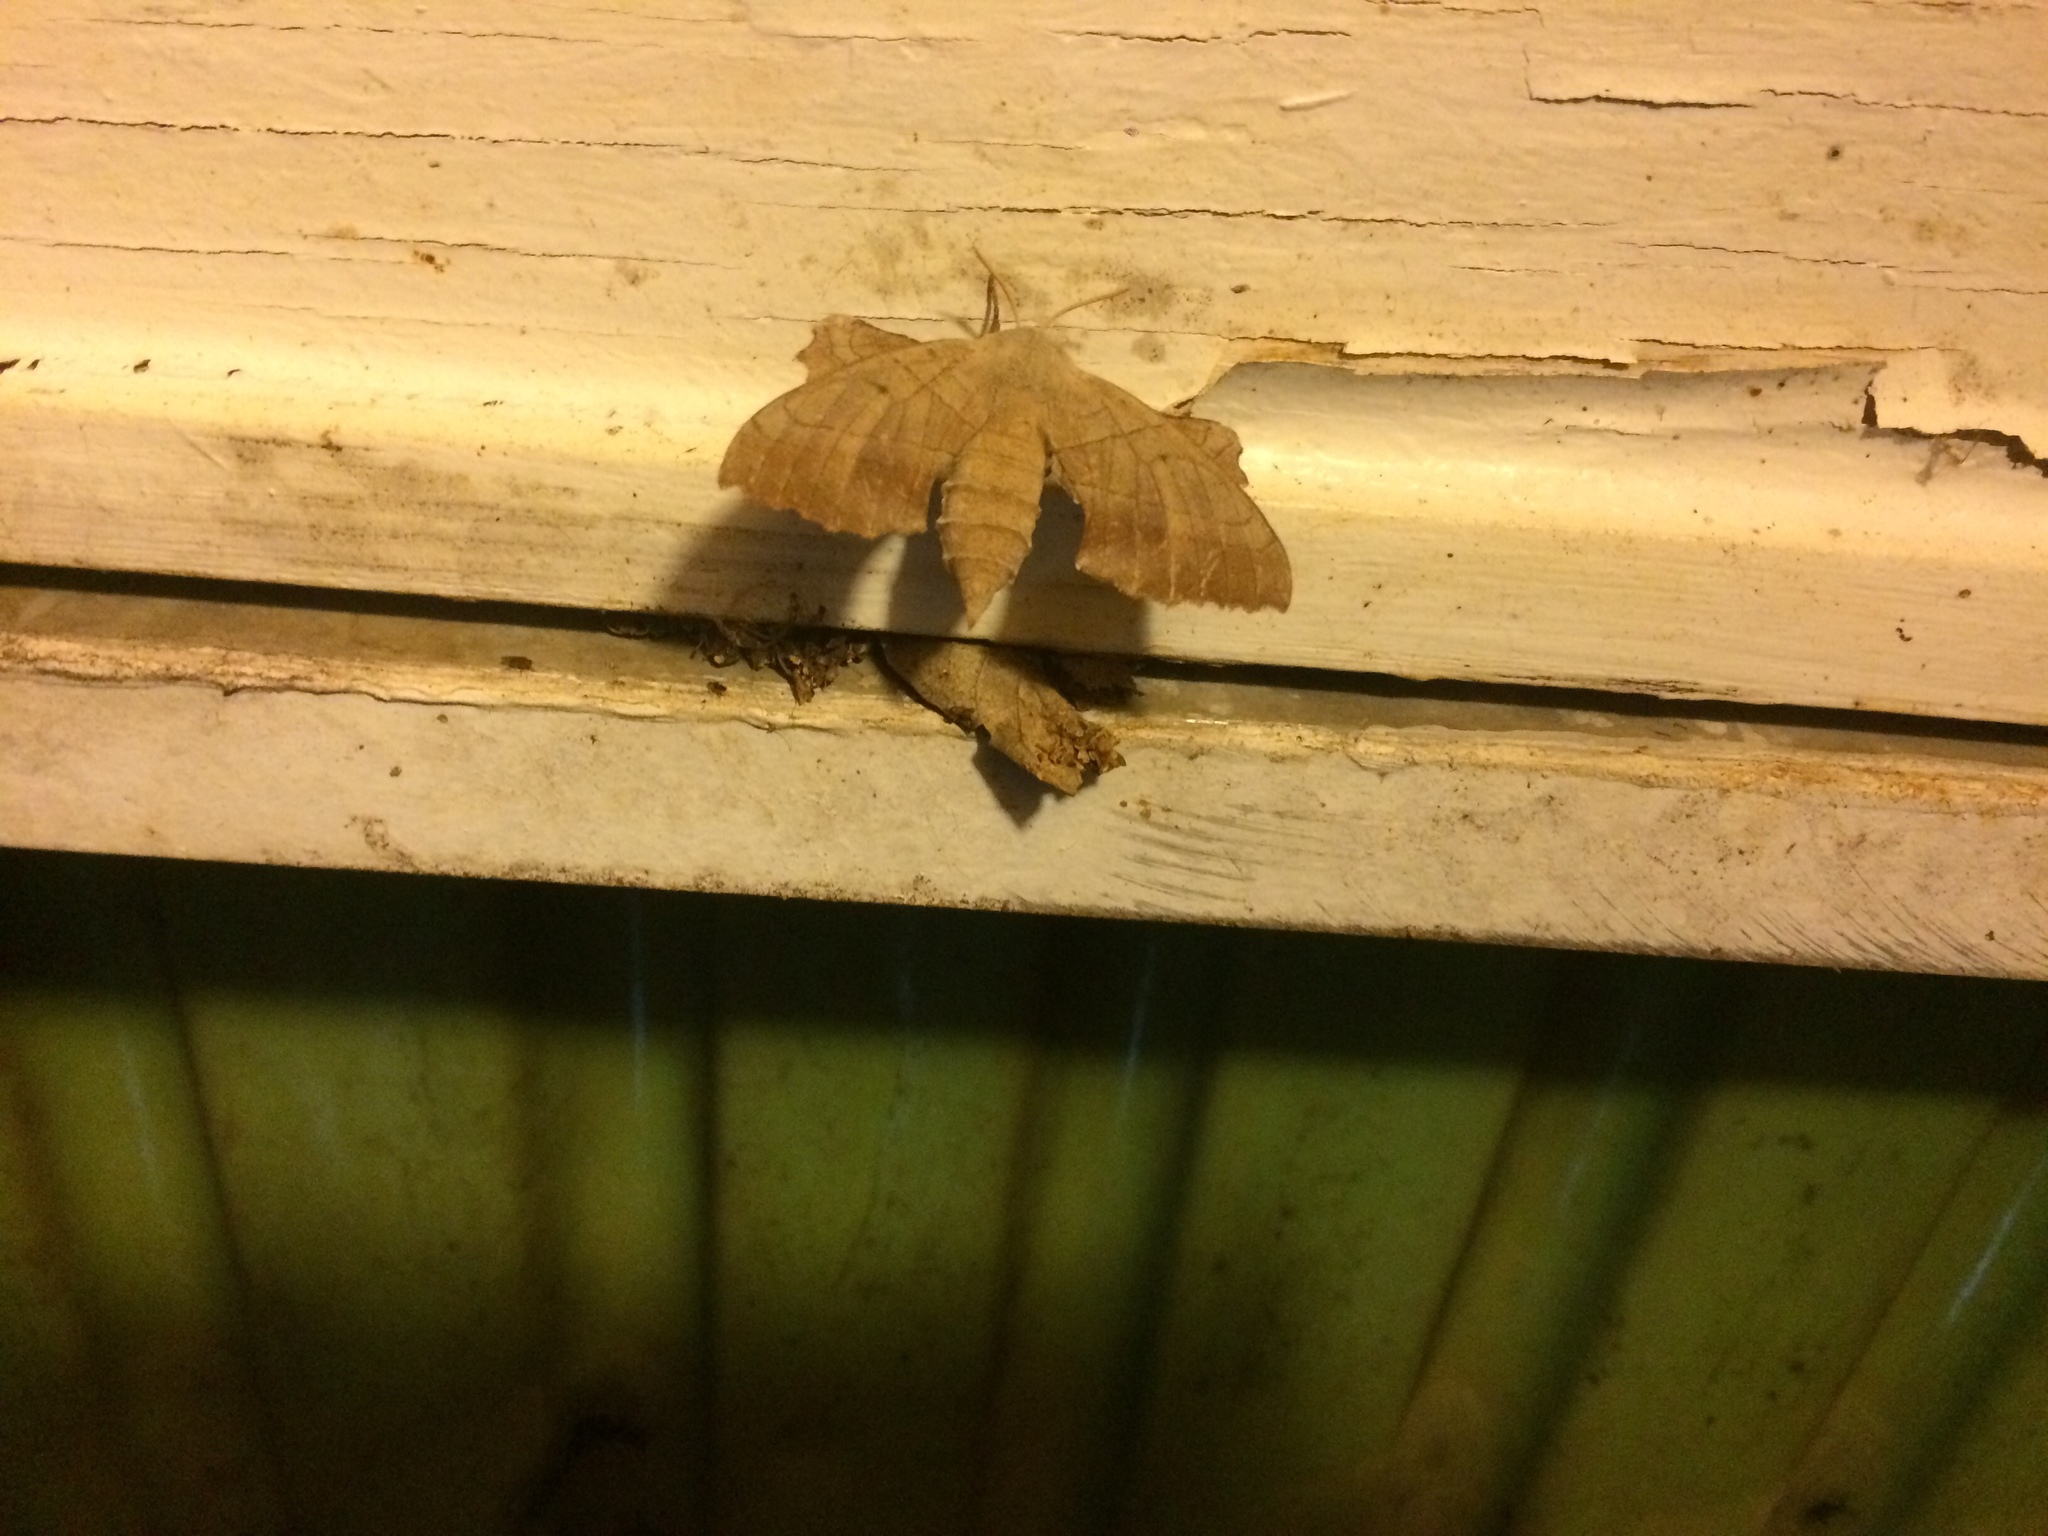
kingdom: Animalia
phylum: Arthropoda
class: Insecta
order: Lepidoptera
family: Sphingidae
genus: Amorpha
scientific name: Amorpha juglandis
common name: Walnut sphinx
